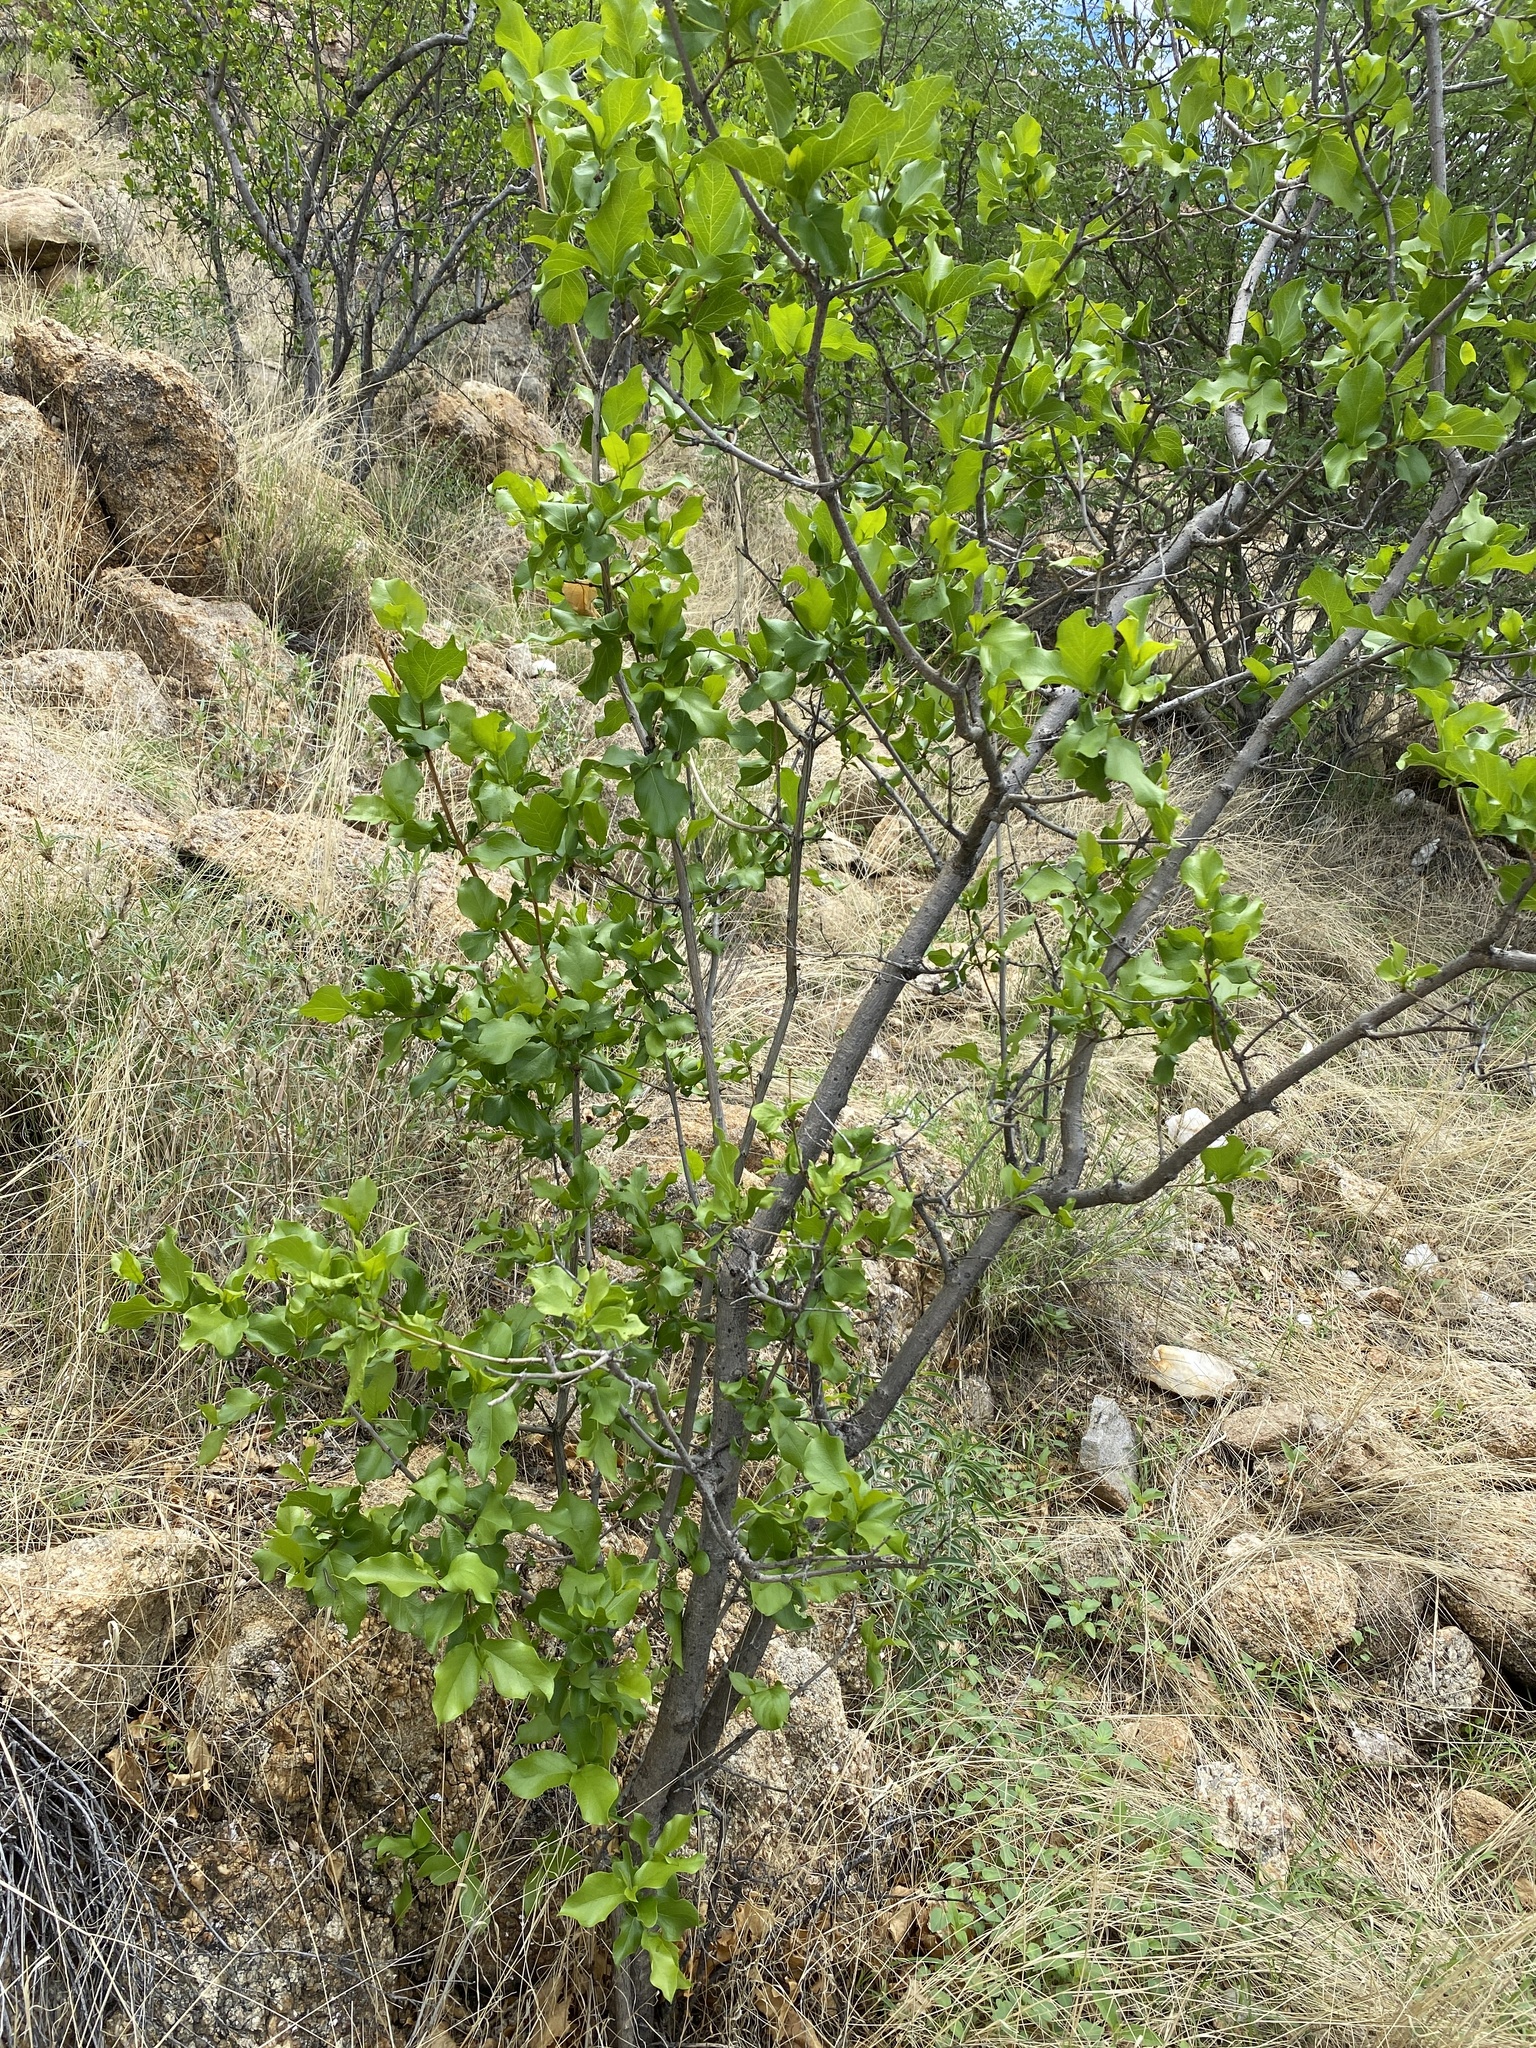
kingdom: Plantae
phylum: Tracheophyta
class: Magnoliopsida
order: Myrtales
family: Combretaceae
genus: Combretum
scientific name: Combretum apiculatum
